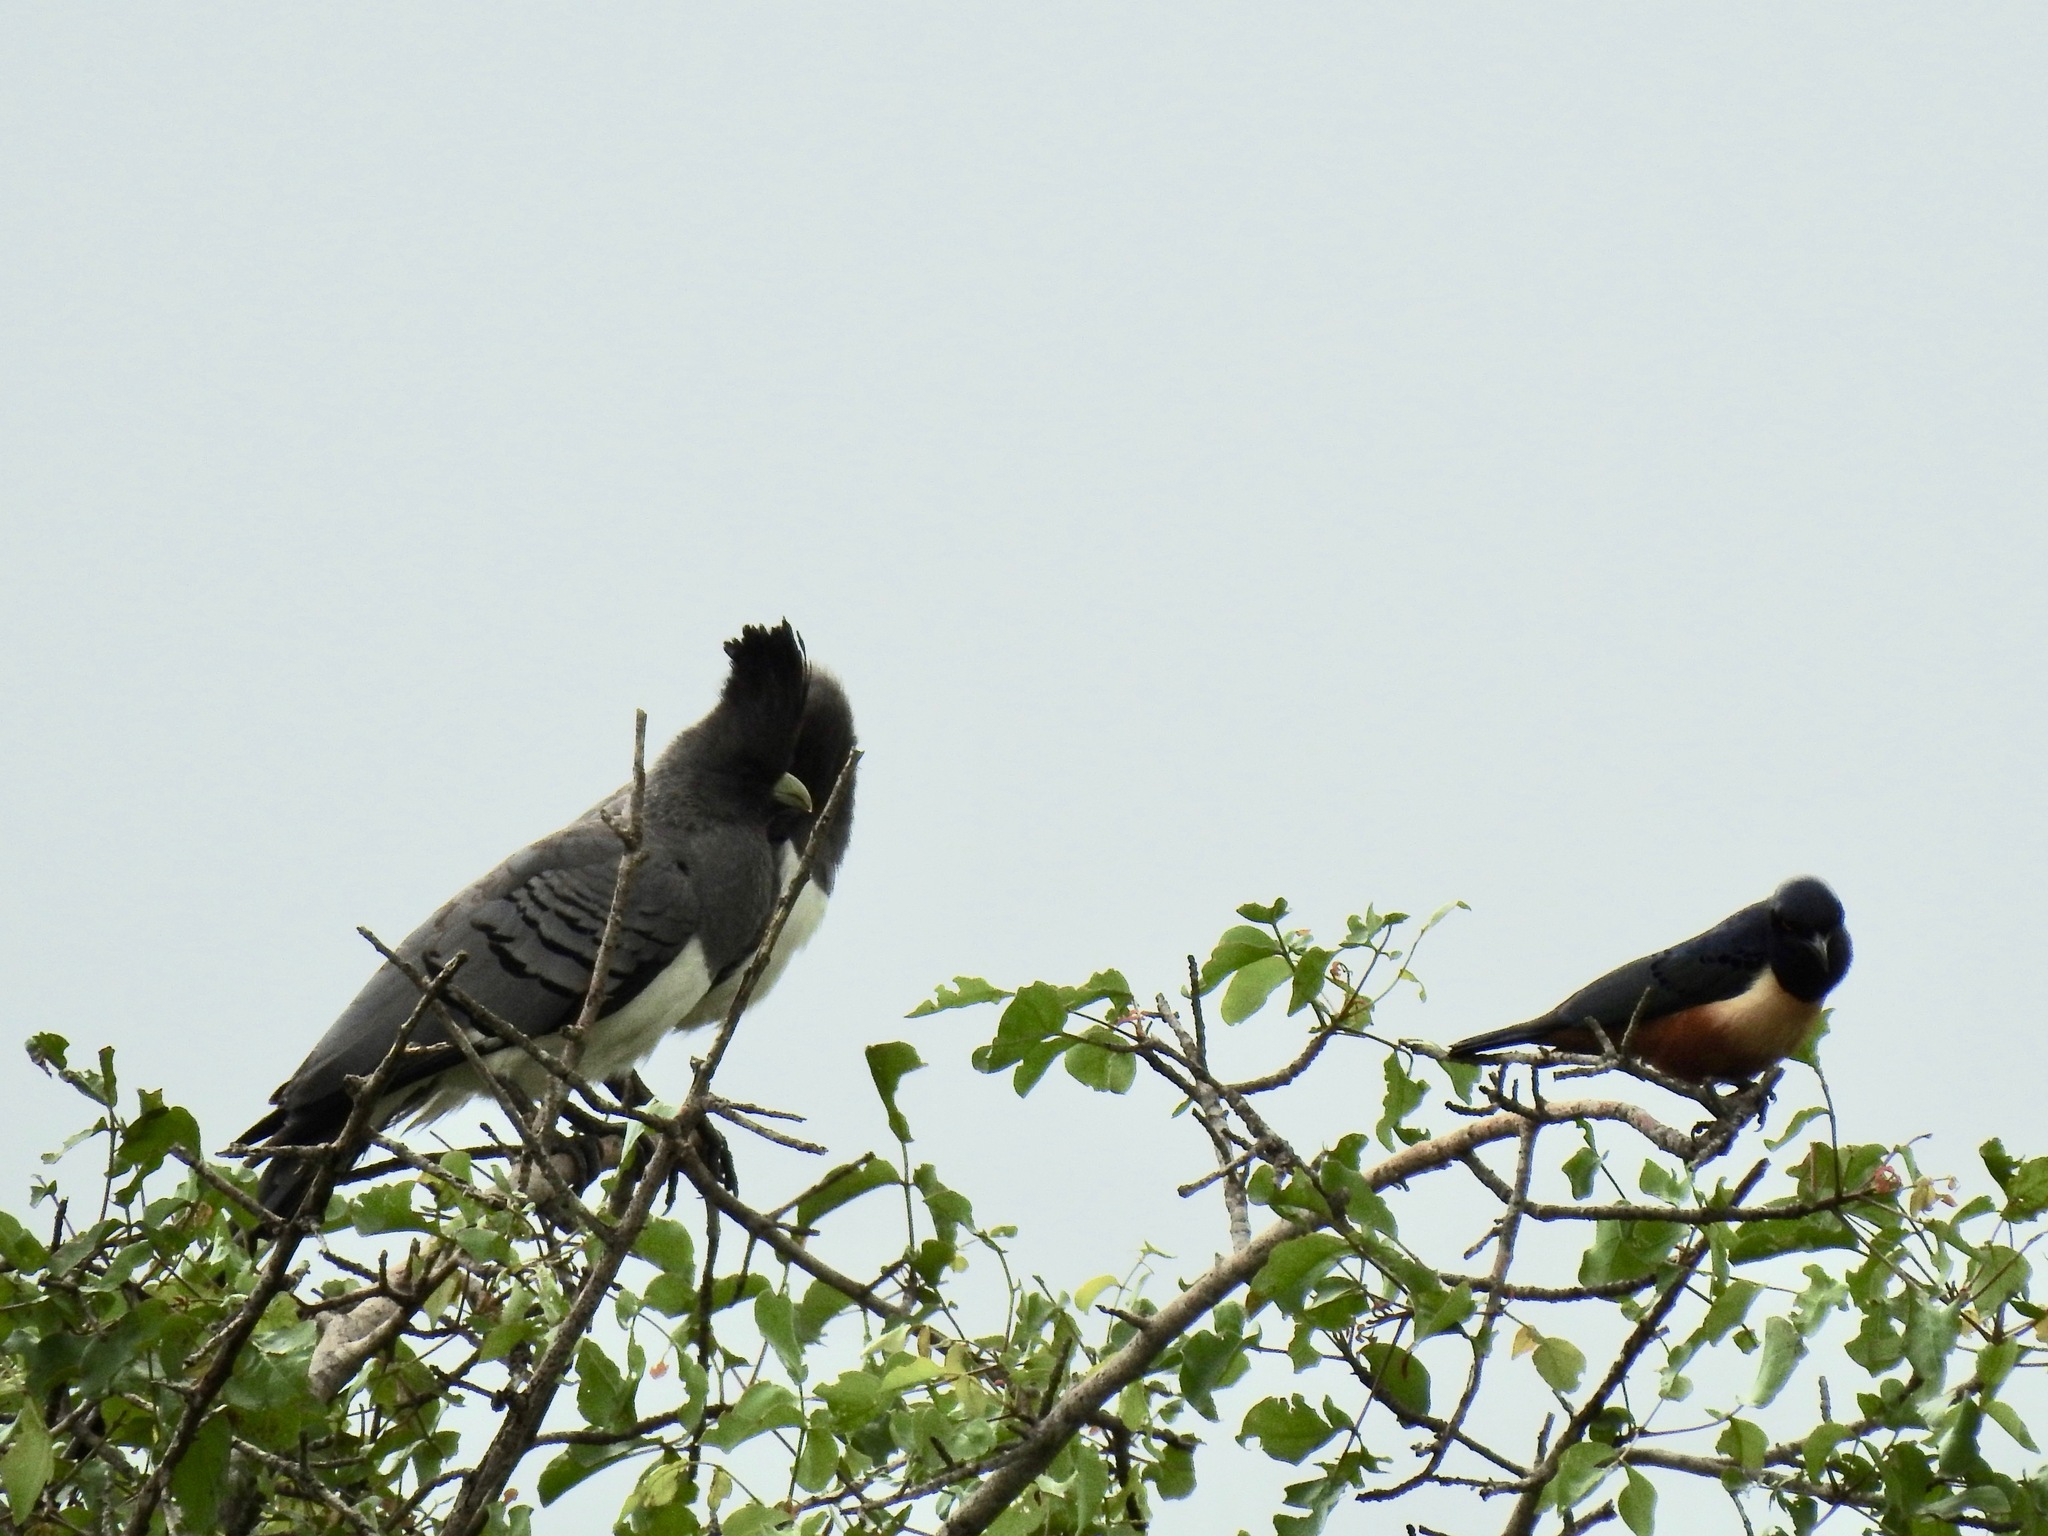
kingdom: Animalia
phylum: Chordata
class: Aves
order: Musophagiformes
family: Musophagidae
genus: Corythaixoides
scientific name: Corythaixoides leucogaster
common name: White-bellied go-away-bird
